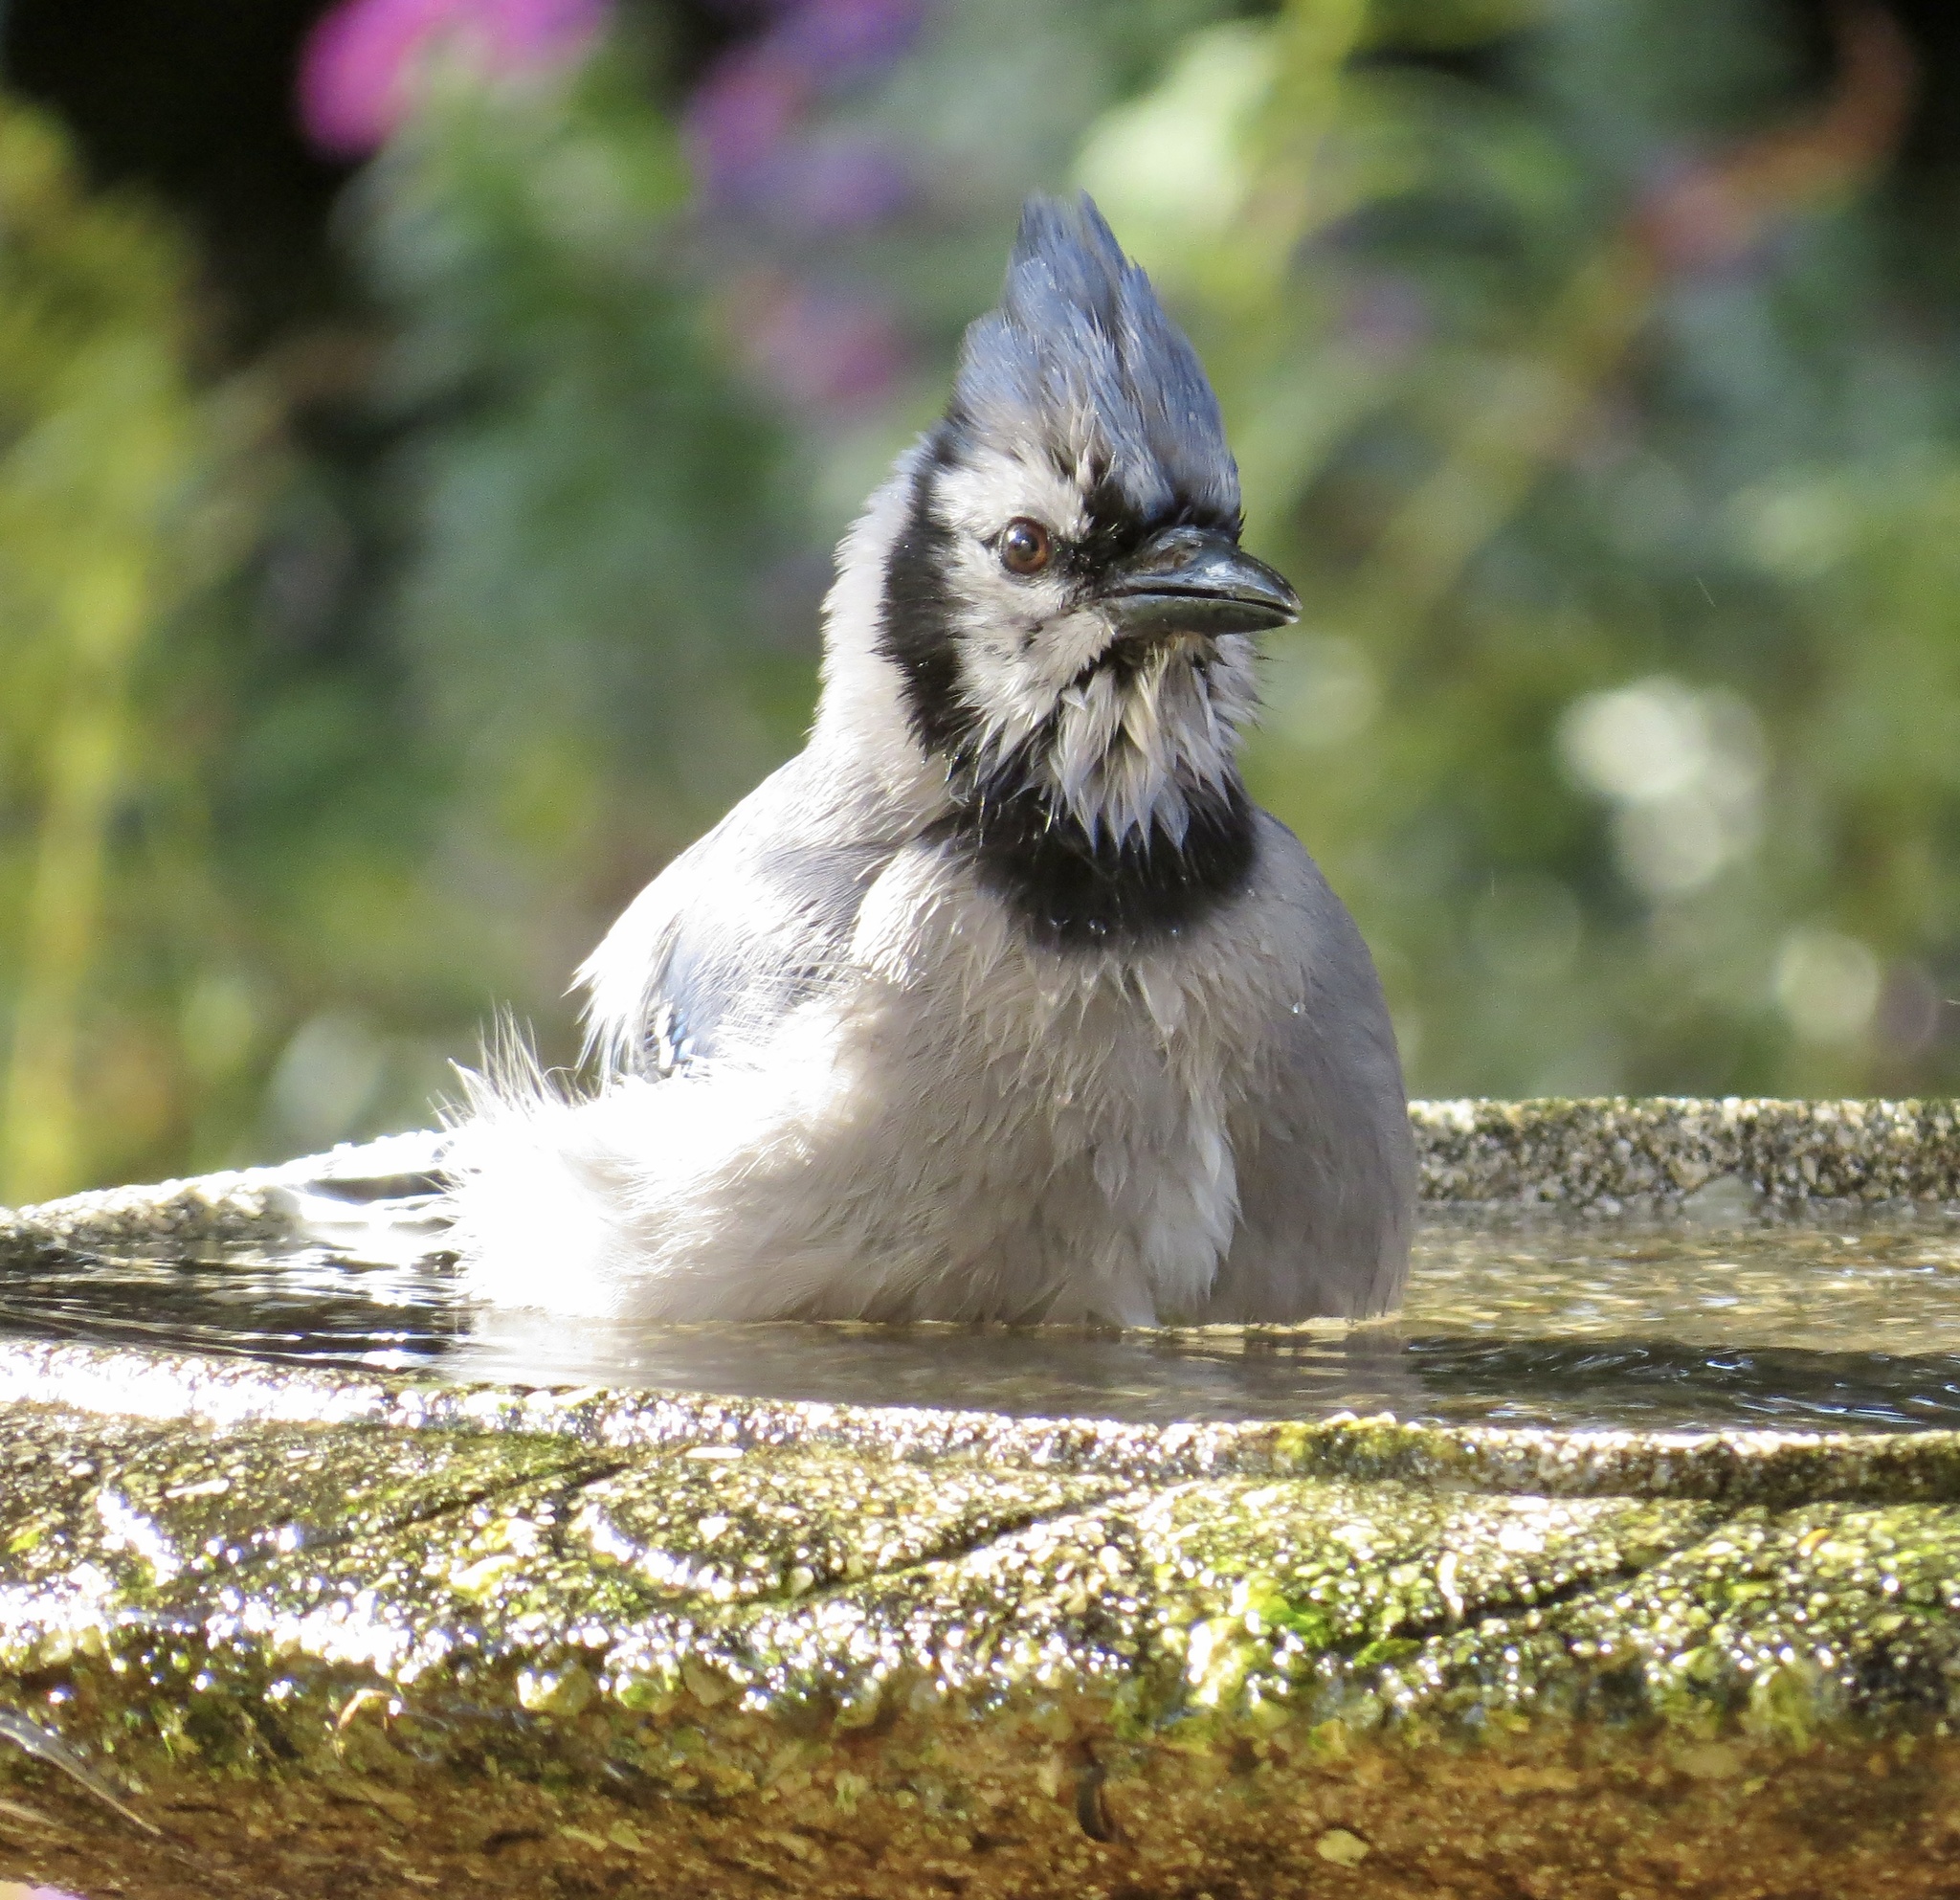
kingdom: Animalia
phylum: Chordata
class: Aves
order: Passeriformes
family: Corvidae
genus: Cyanocitta
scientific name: Cyanocitta cristata
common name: Blue jay
